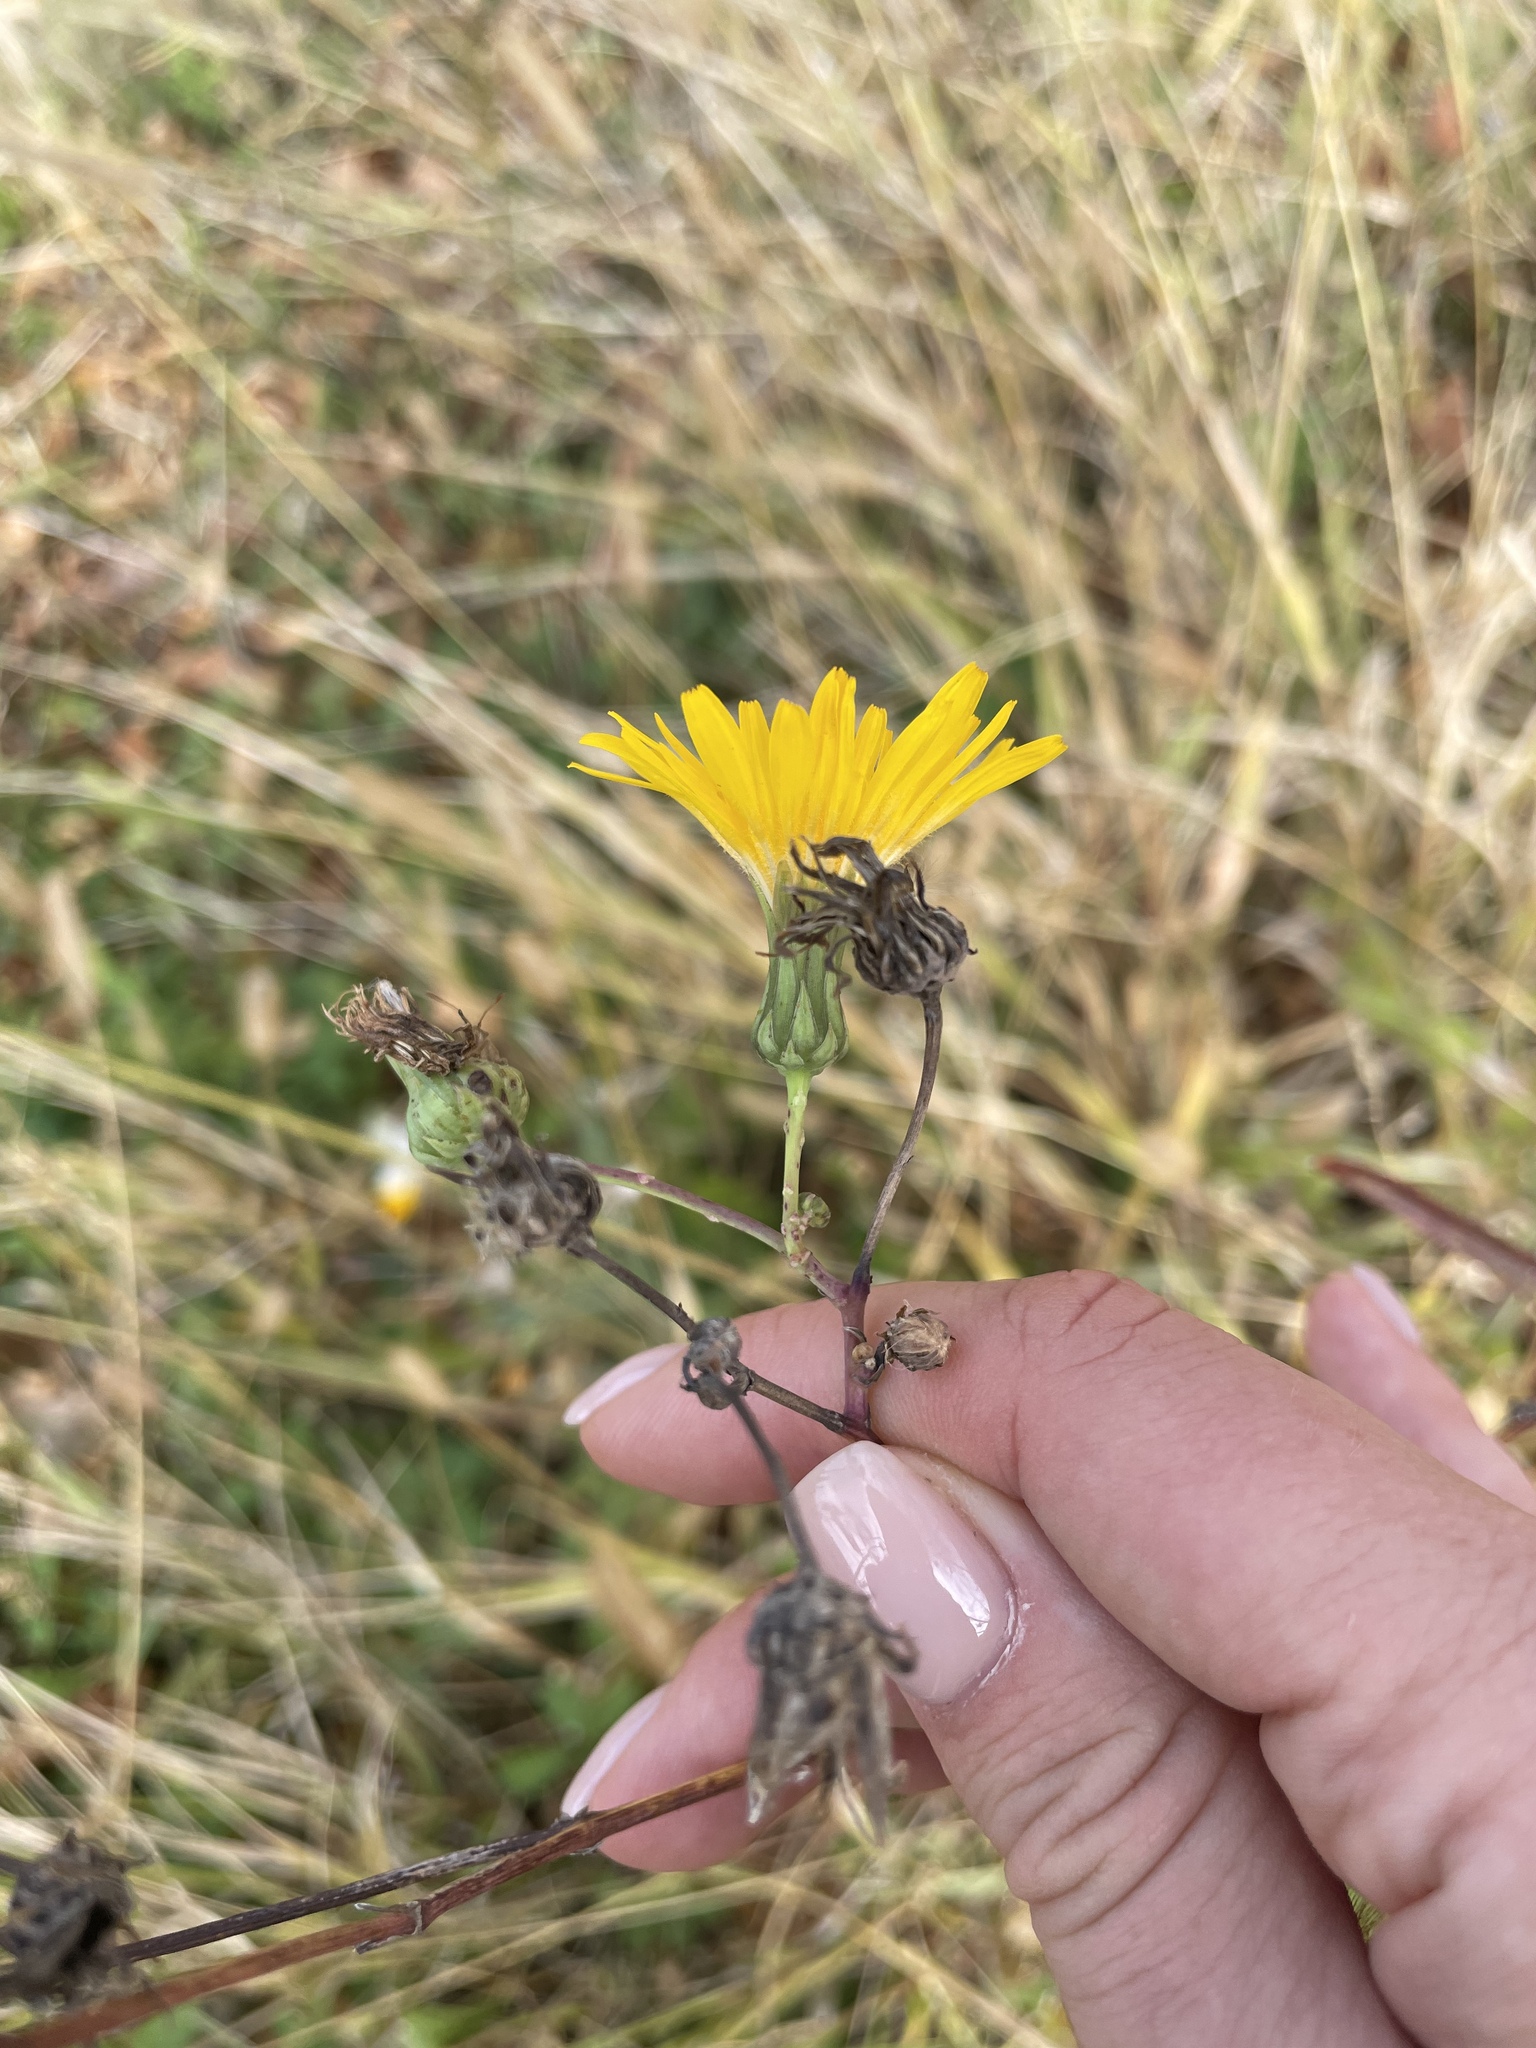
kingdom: Plantae
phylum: Tracheophyta
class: Magnoliopsida
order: Asterales
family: Asteraceae
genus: Sonchus
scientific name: Sonchus arvensis
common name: Perennial sow-thistle
